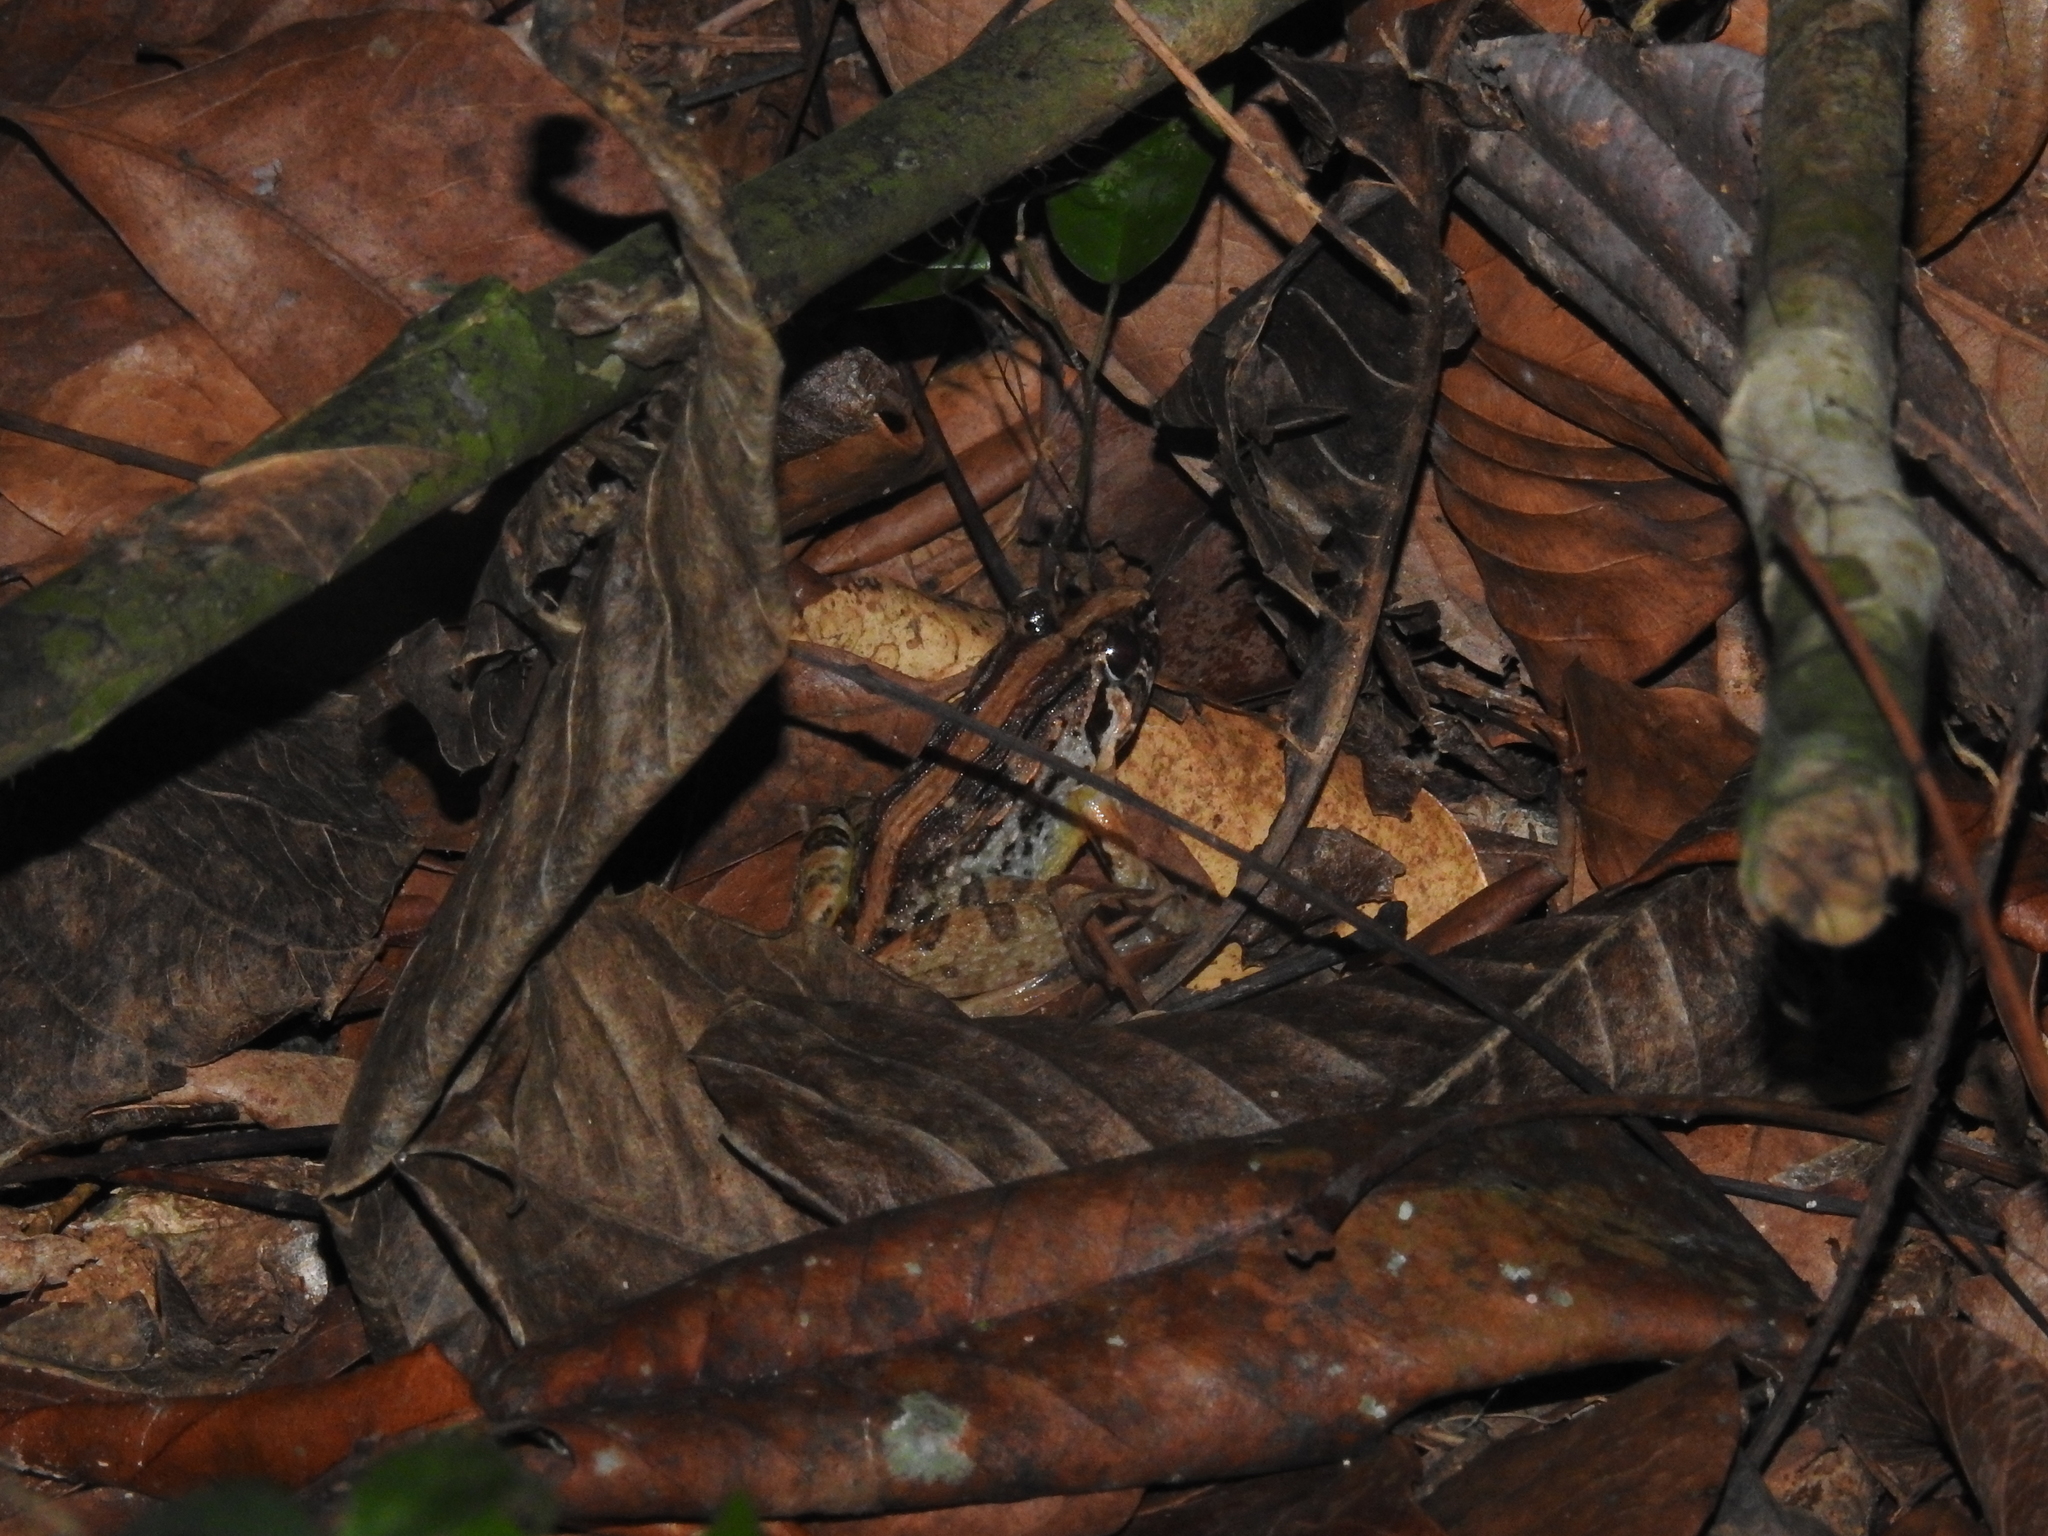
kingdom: Animalia
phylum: Chordata
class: Amphibia
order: Anura
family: Dicroglossidae
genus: Minervarya
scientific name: Minervarya kirtisinghei
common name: Kirtisinghe's frog
